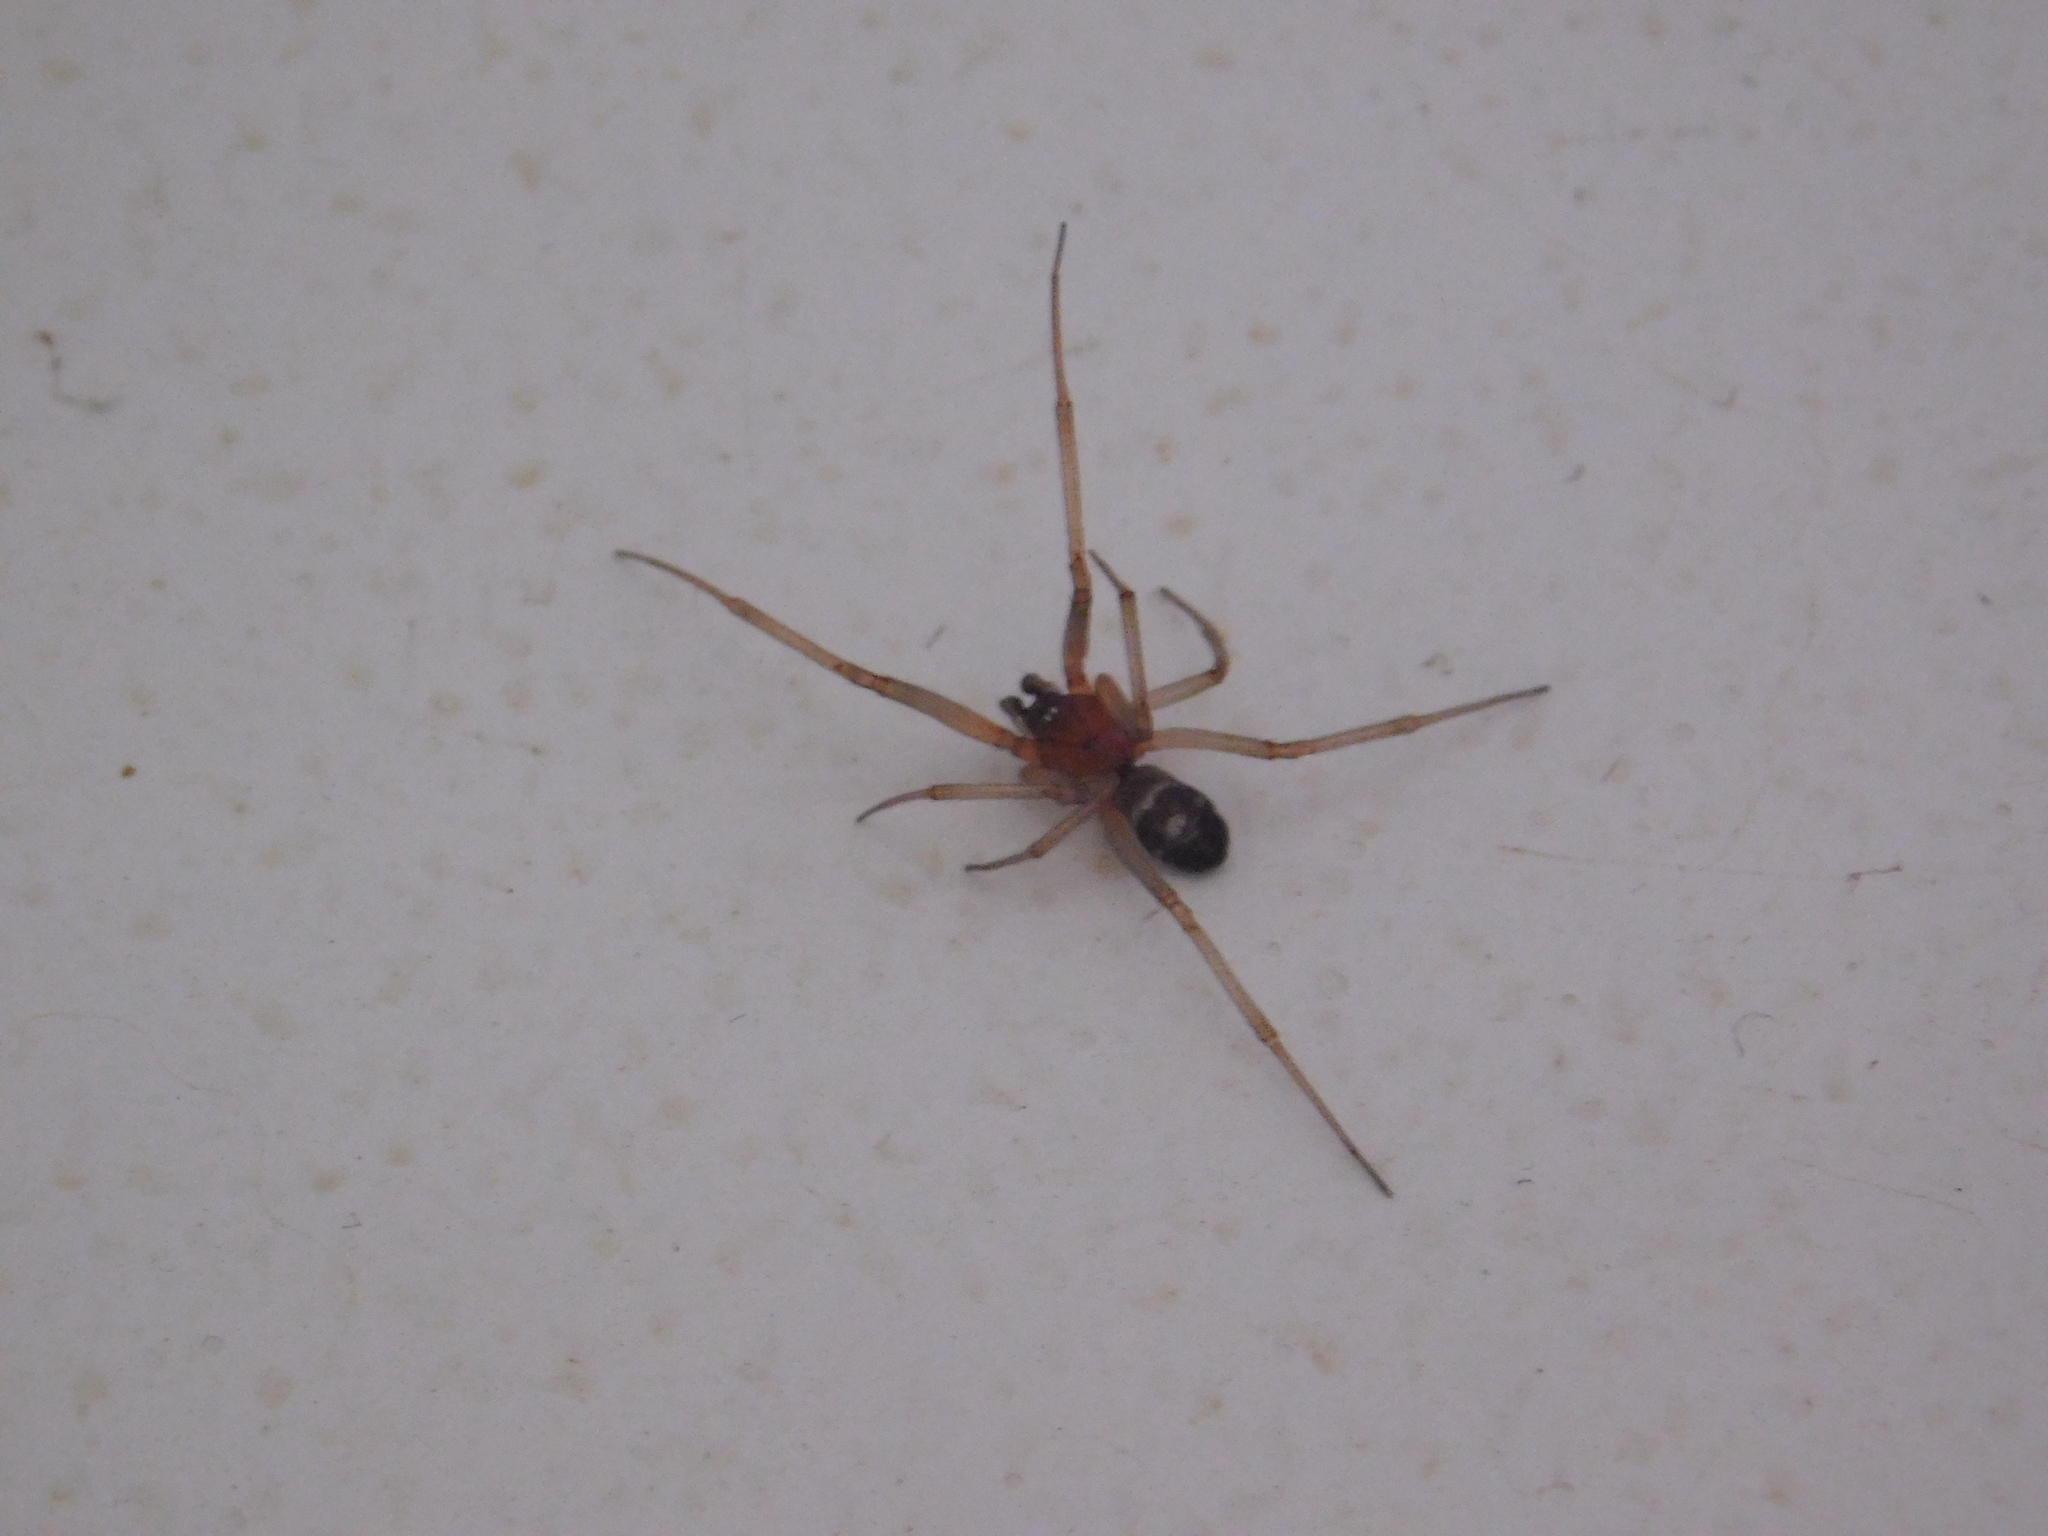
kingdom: Animalia
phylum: Arthropoda
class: Arachnida
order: Araneae
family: Theridiidae
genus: Steatoda
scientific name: Steatoda grossa
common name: False black widow
